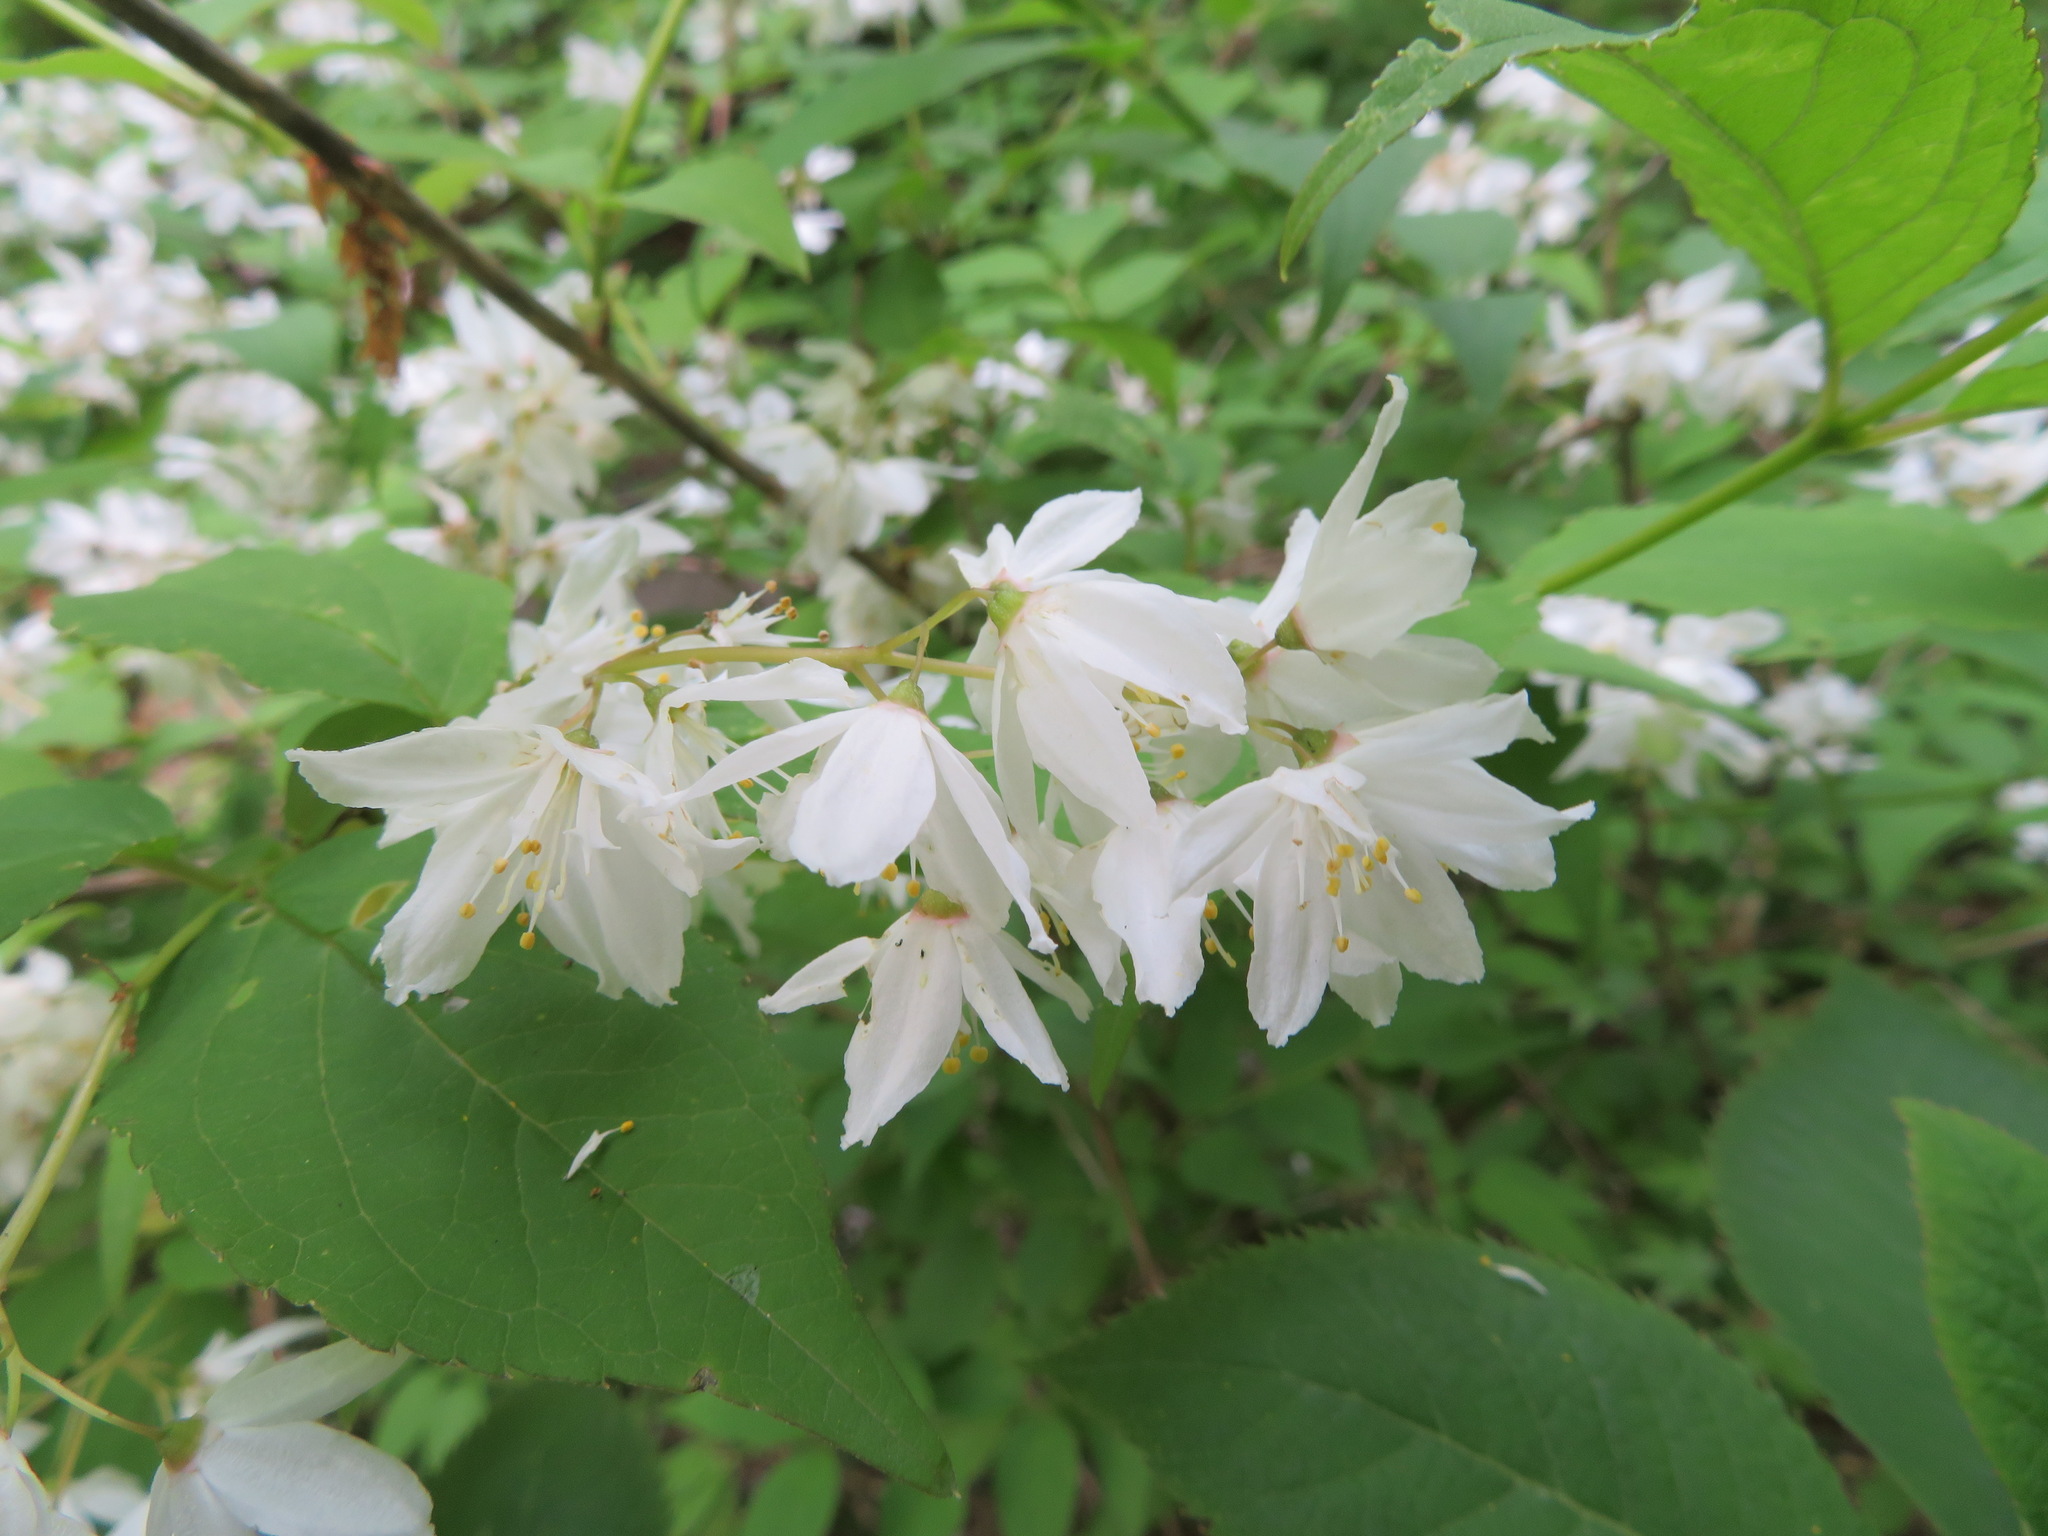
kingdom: Plantae
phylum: Tracheophyta
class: Magnoliopsida
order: Cornales
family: Hydrangeaceae
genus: Deutzia
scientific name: Deutzia gracilis
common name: Slender pride of rochester
